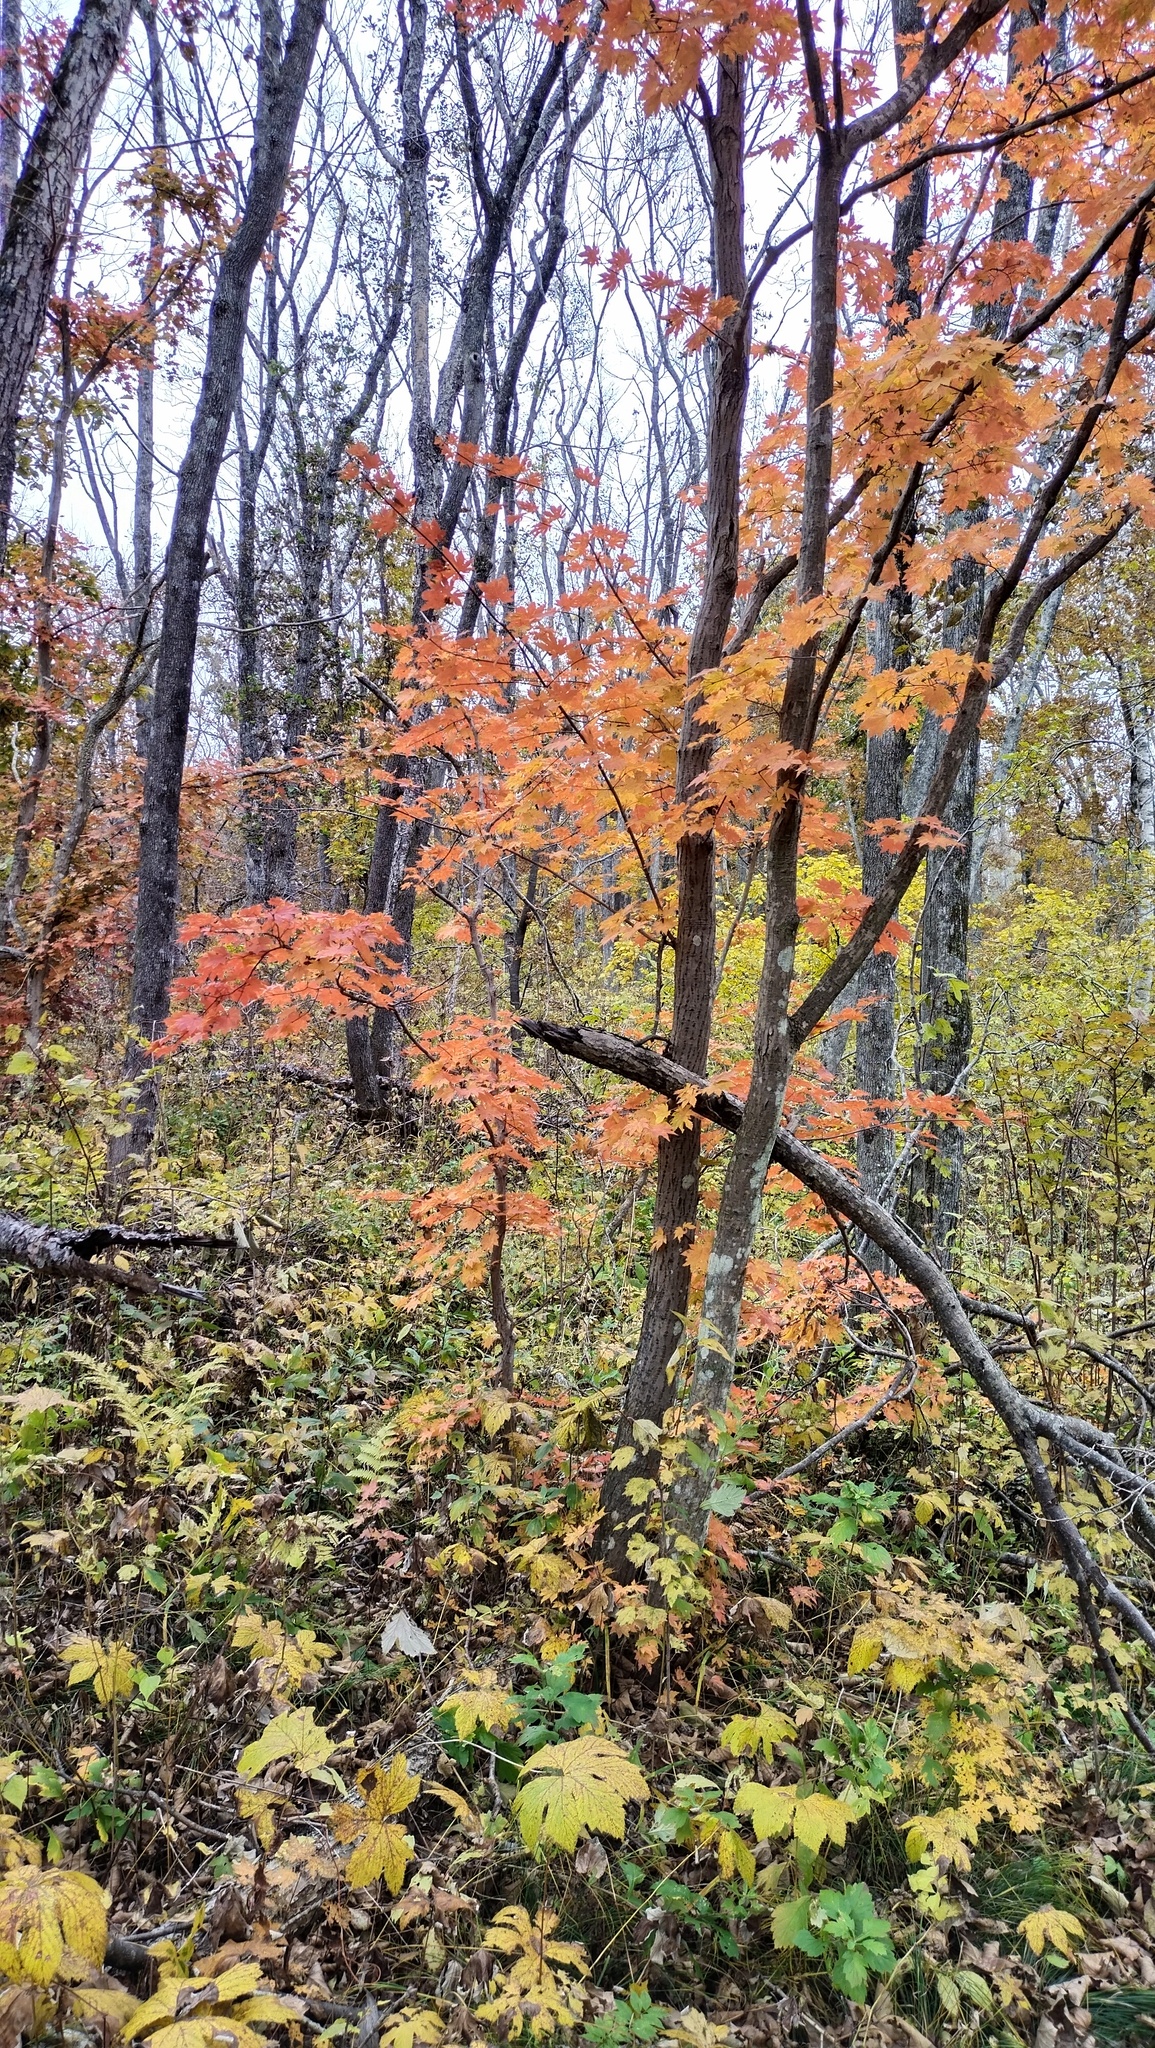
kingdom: Plantae
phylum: Tracheophyta
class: Magnoliopsida
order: Sapindales
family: Sapindaceae
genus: Acer
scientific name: Acer pseudosieboldianum
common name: Korean maple
